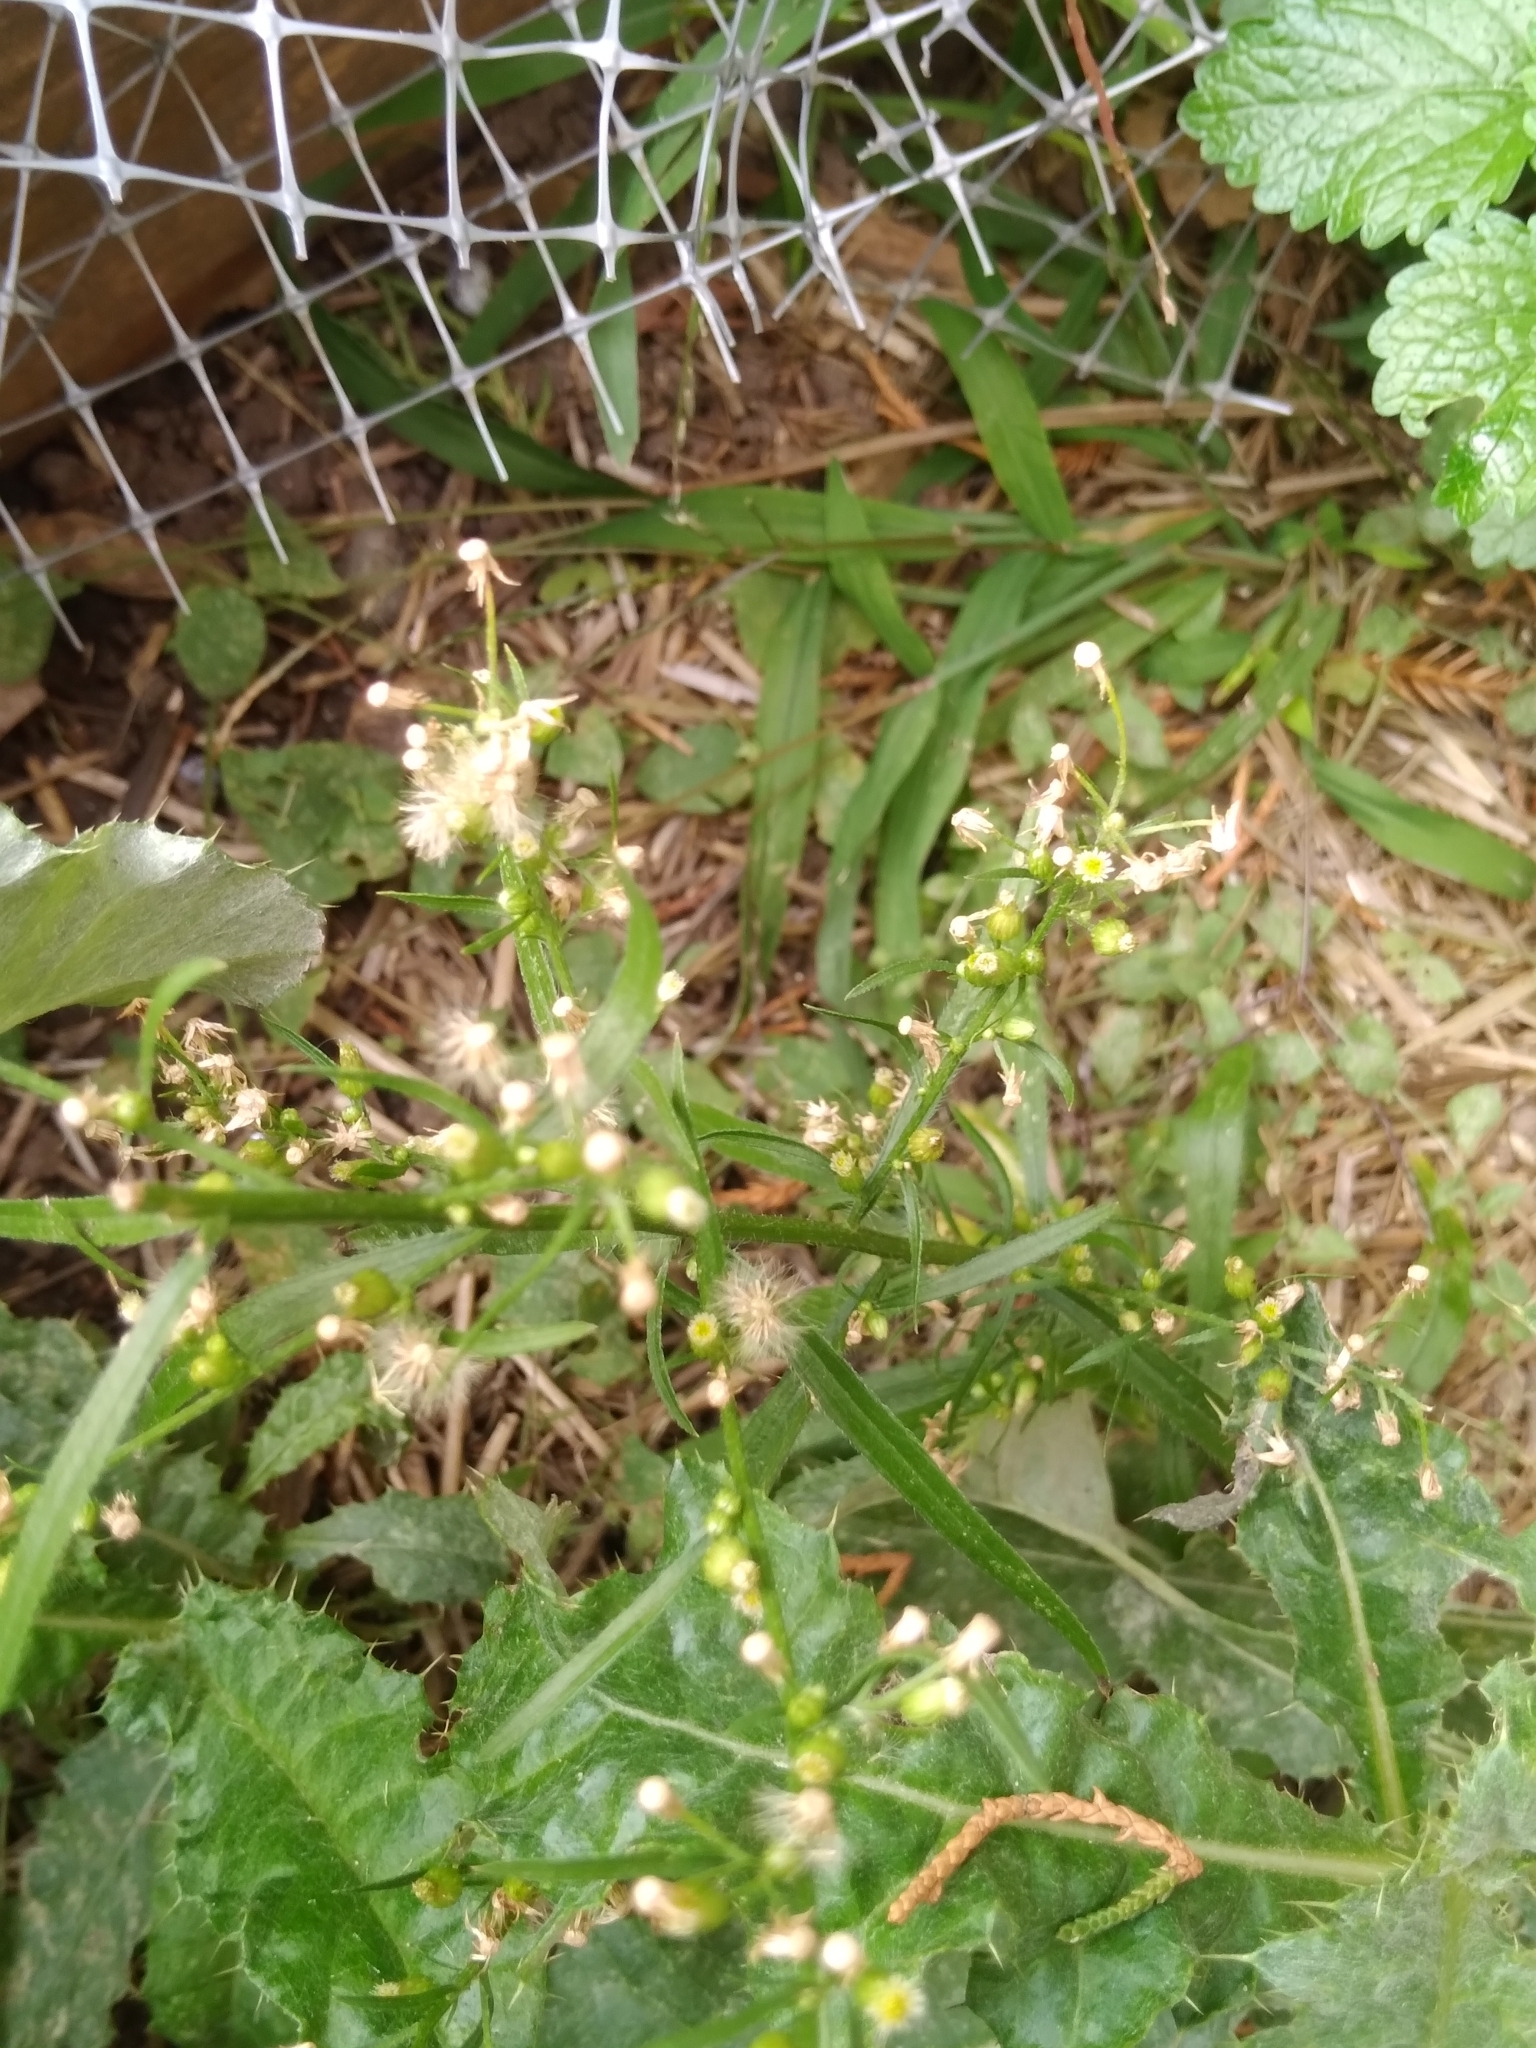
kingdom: Plantae
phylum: Tracheophyta
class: Magnoliopsida
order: Asterales
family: Asteraceae
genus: Erigeron
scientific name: Erigeron canadensis
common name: Canadian fleabane
